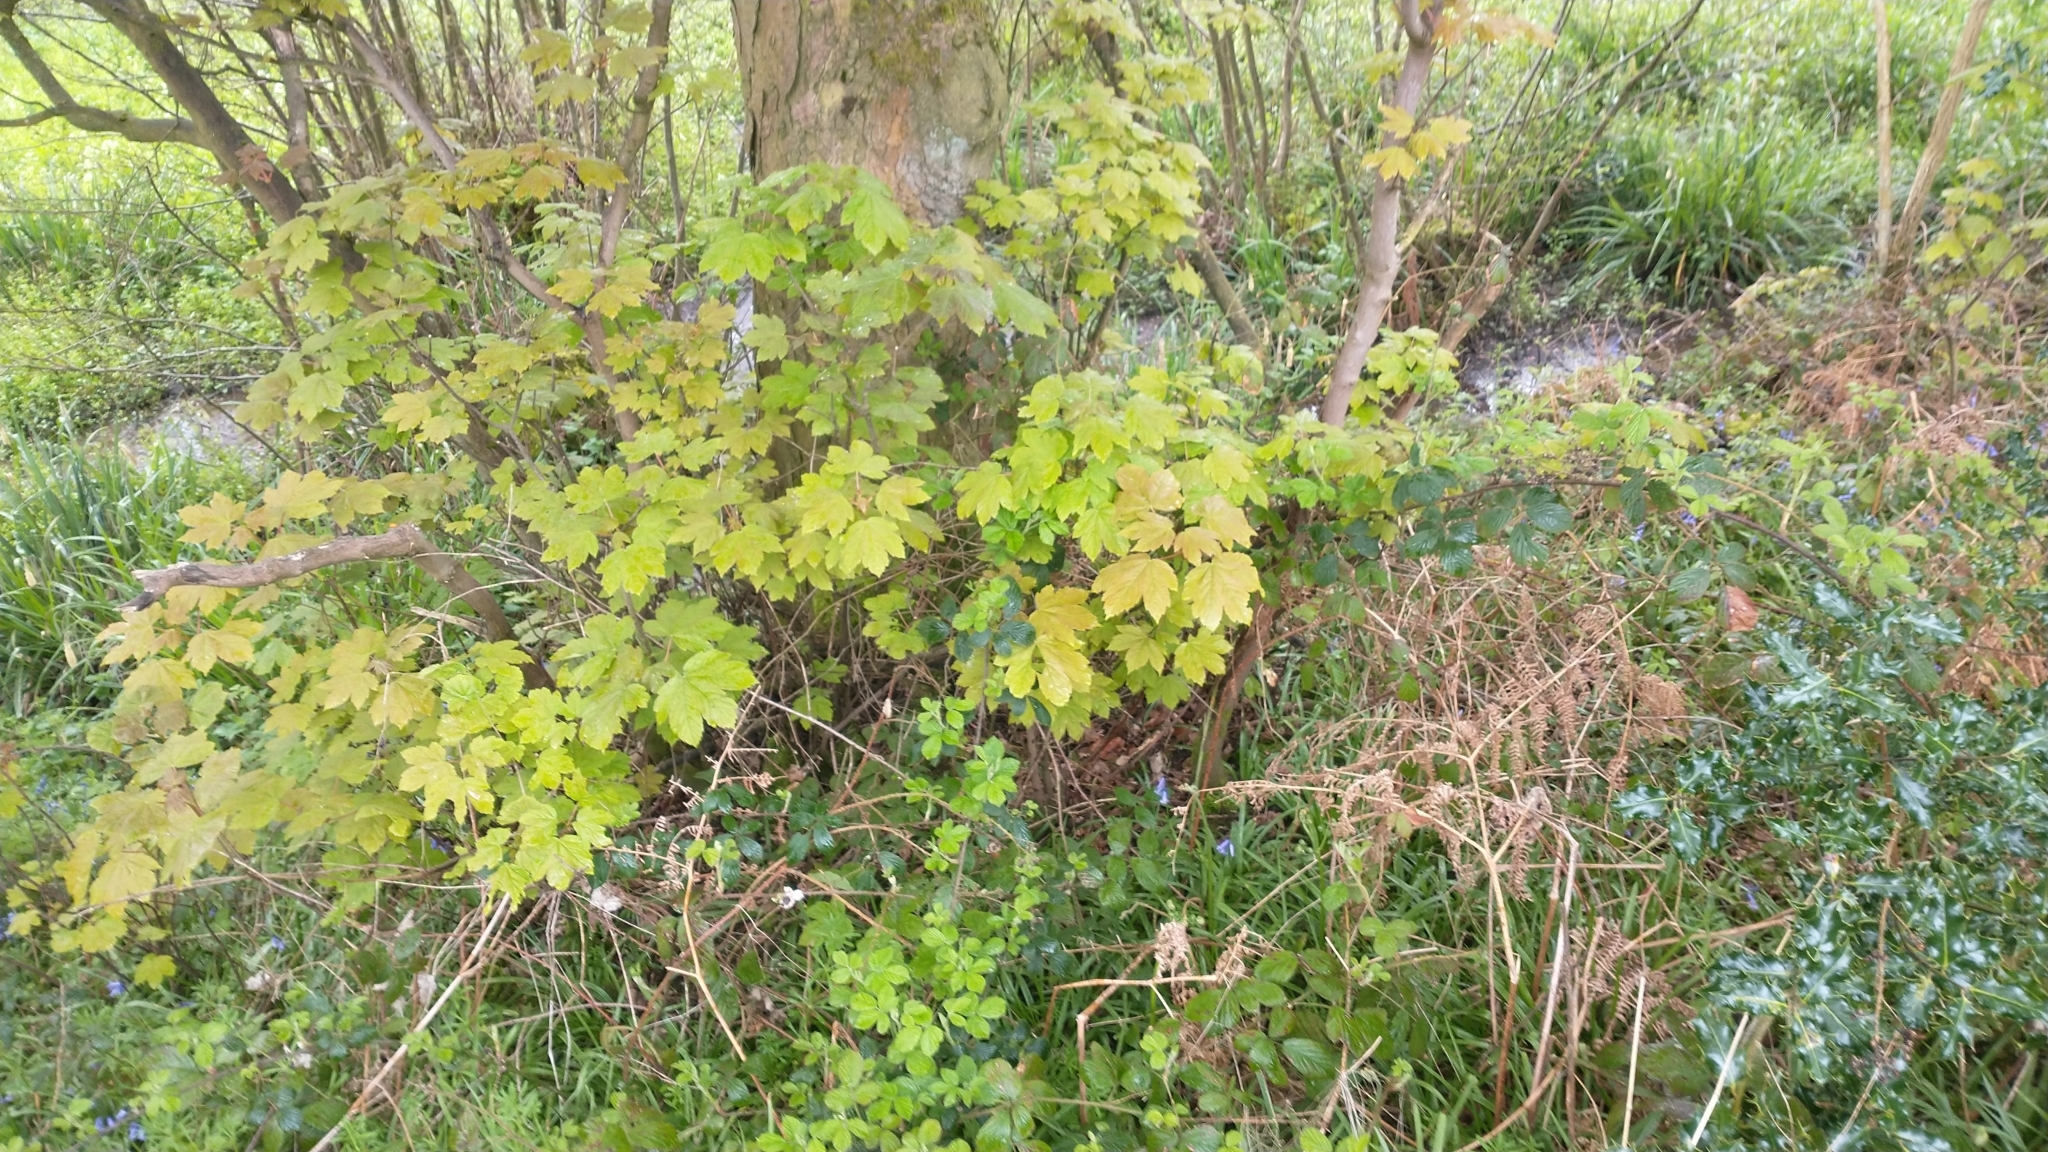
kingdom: Plantae
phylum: Tracheophyta
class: Magnoliopsida
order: Sapindales
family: Sapindaceae
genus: Acer
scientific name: Acer pseudoplatanus
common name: Sycamore
